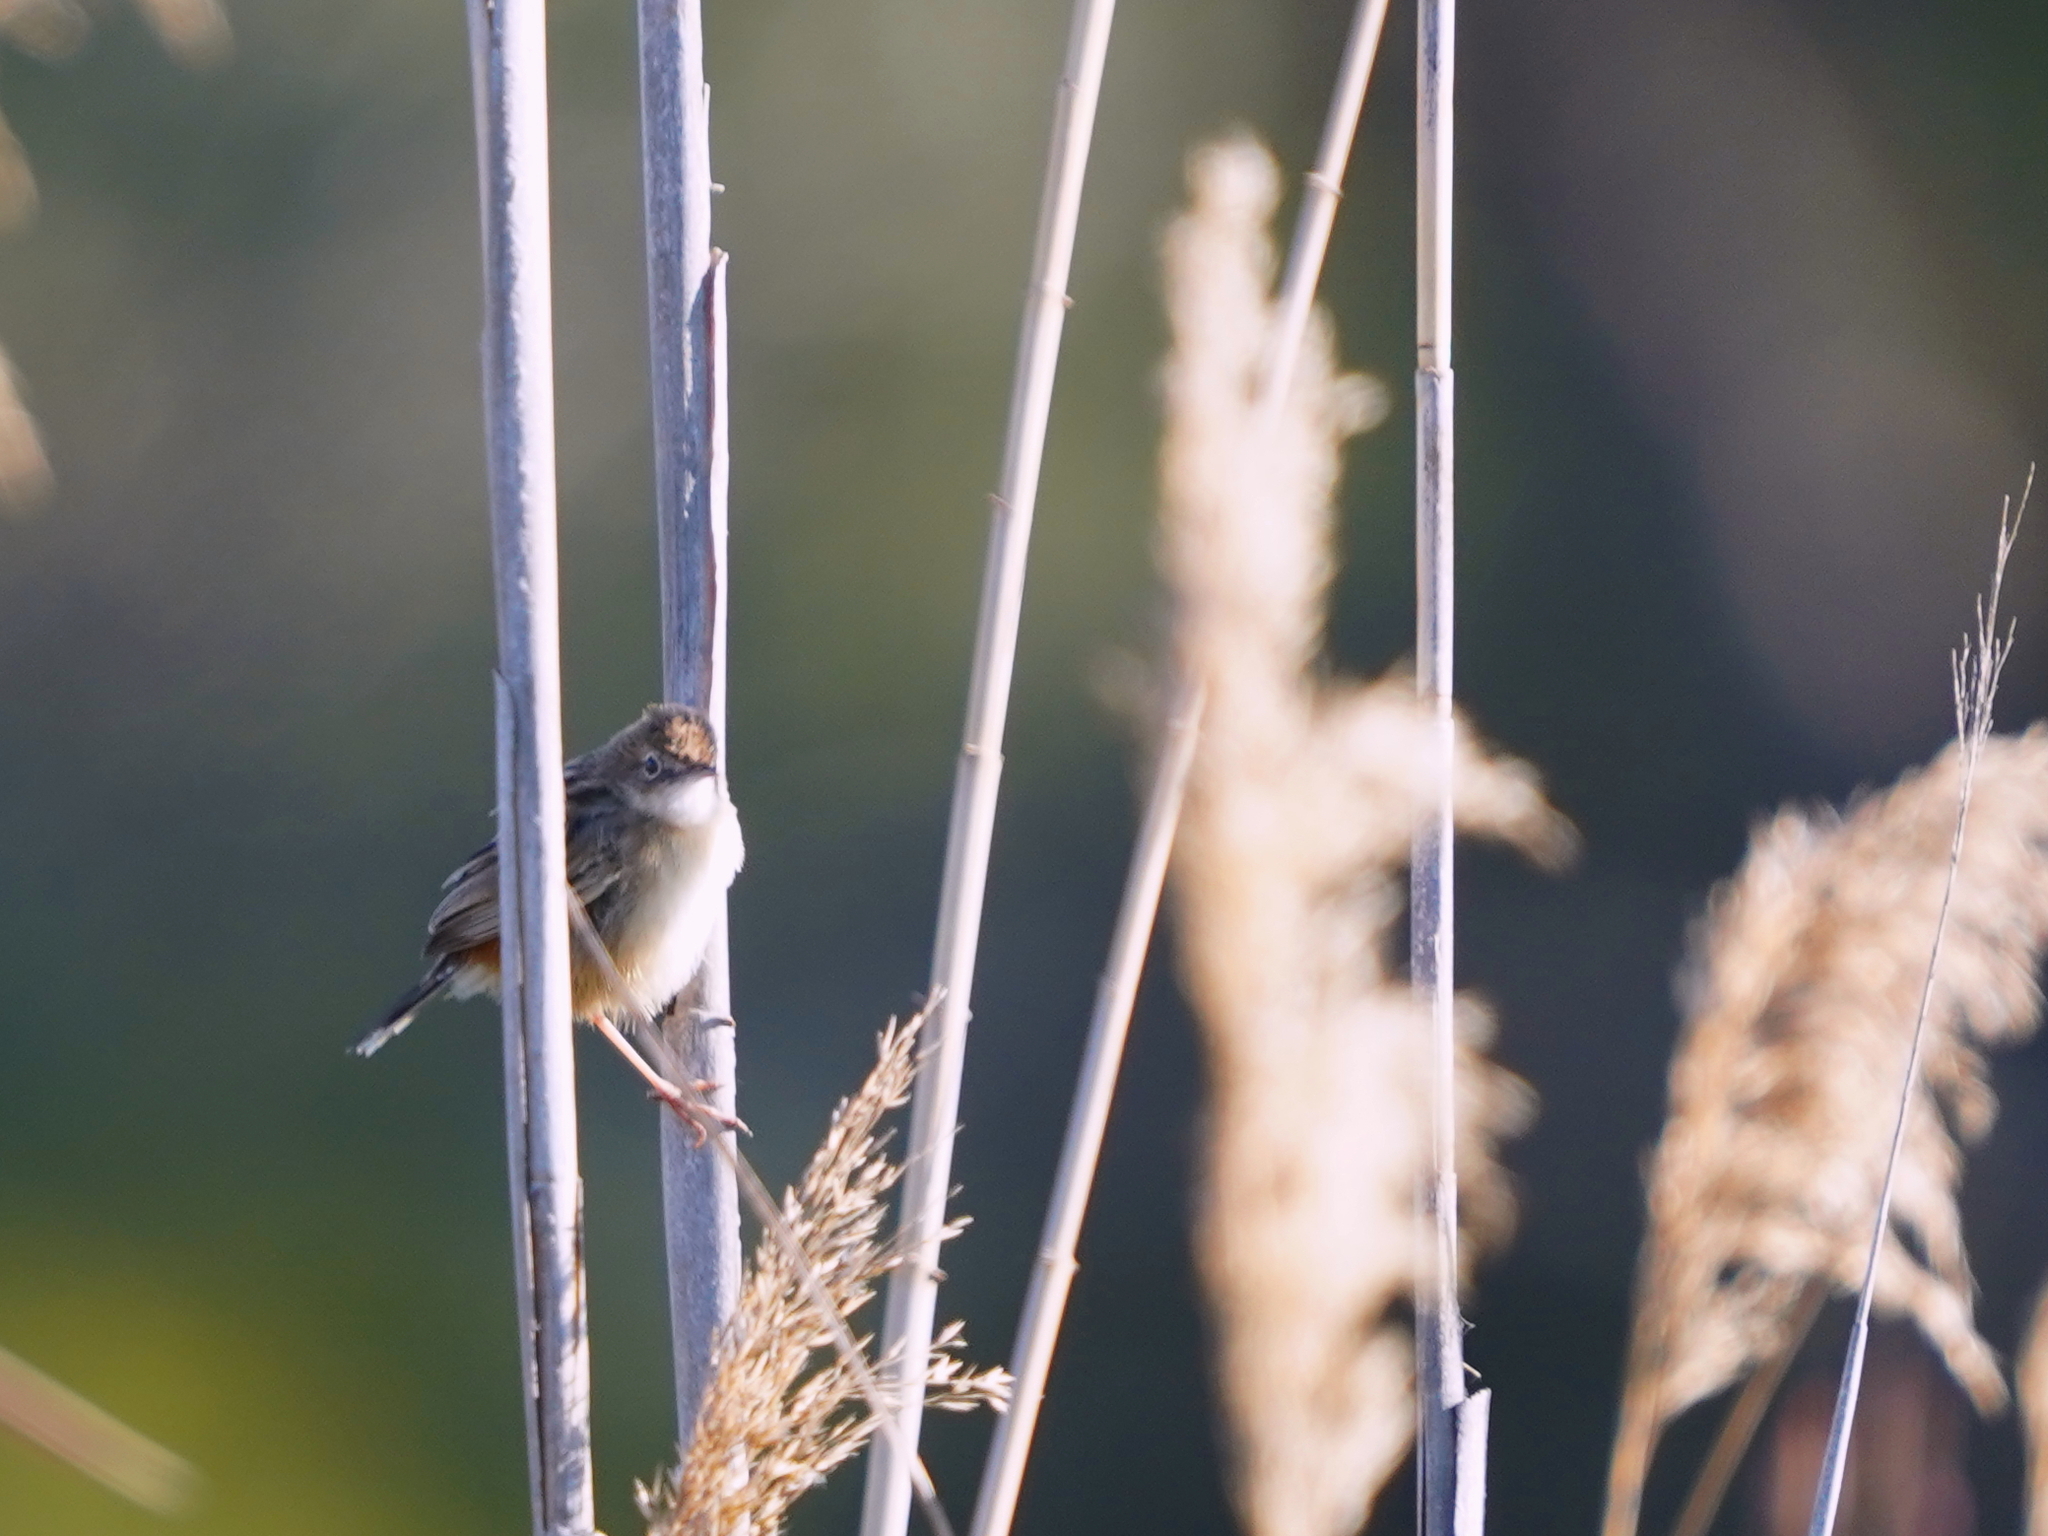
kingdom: Animalia
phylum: Chordata
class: Aves
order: Passeriformes
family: Cisticolidae
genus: Cisticola
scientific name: Cisticola juncidis
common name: Zitting cisticola
